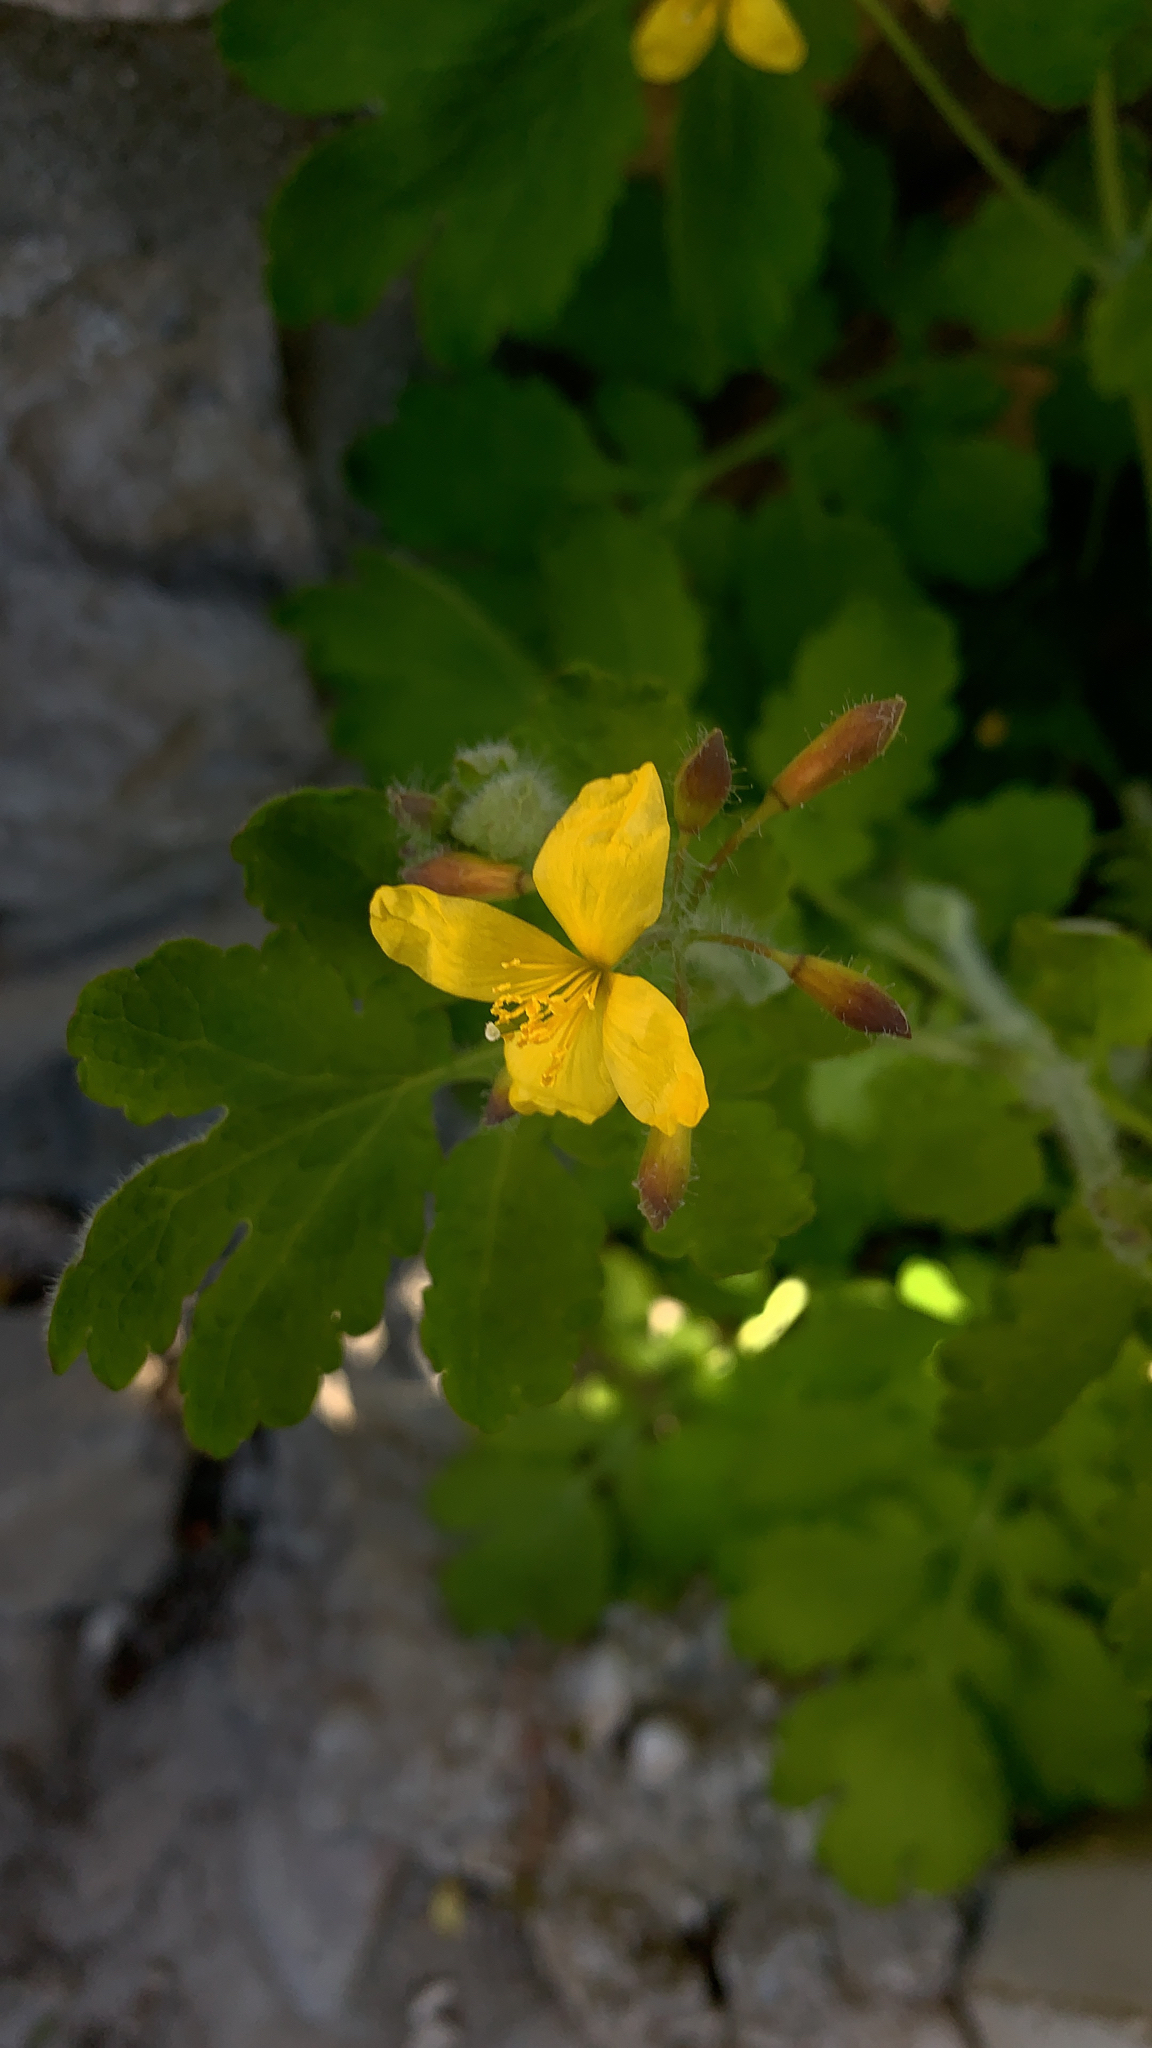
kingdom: Plantae
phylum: Tracheophyta
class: Magnoliopsida
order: Ranunculales
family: Papaveraceae
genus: Chelidonium
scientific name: Chelidonium majus
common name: Greater celandine
